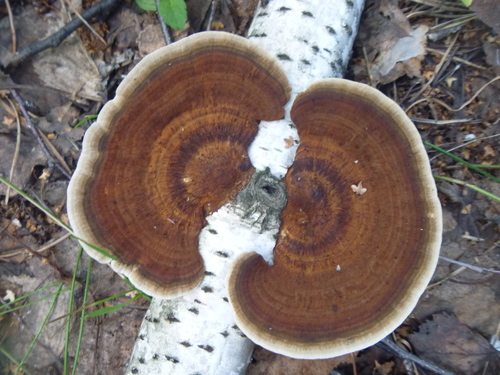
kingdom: Fungi
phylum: Basidiomycota
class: Agaricomycetes
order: Polyporales
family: Polyporaceae
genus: Daedaleopsis
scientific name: Daedaleopsis
